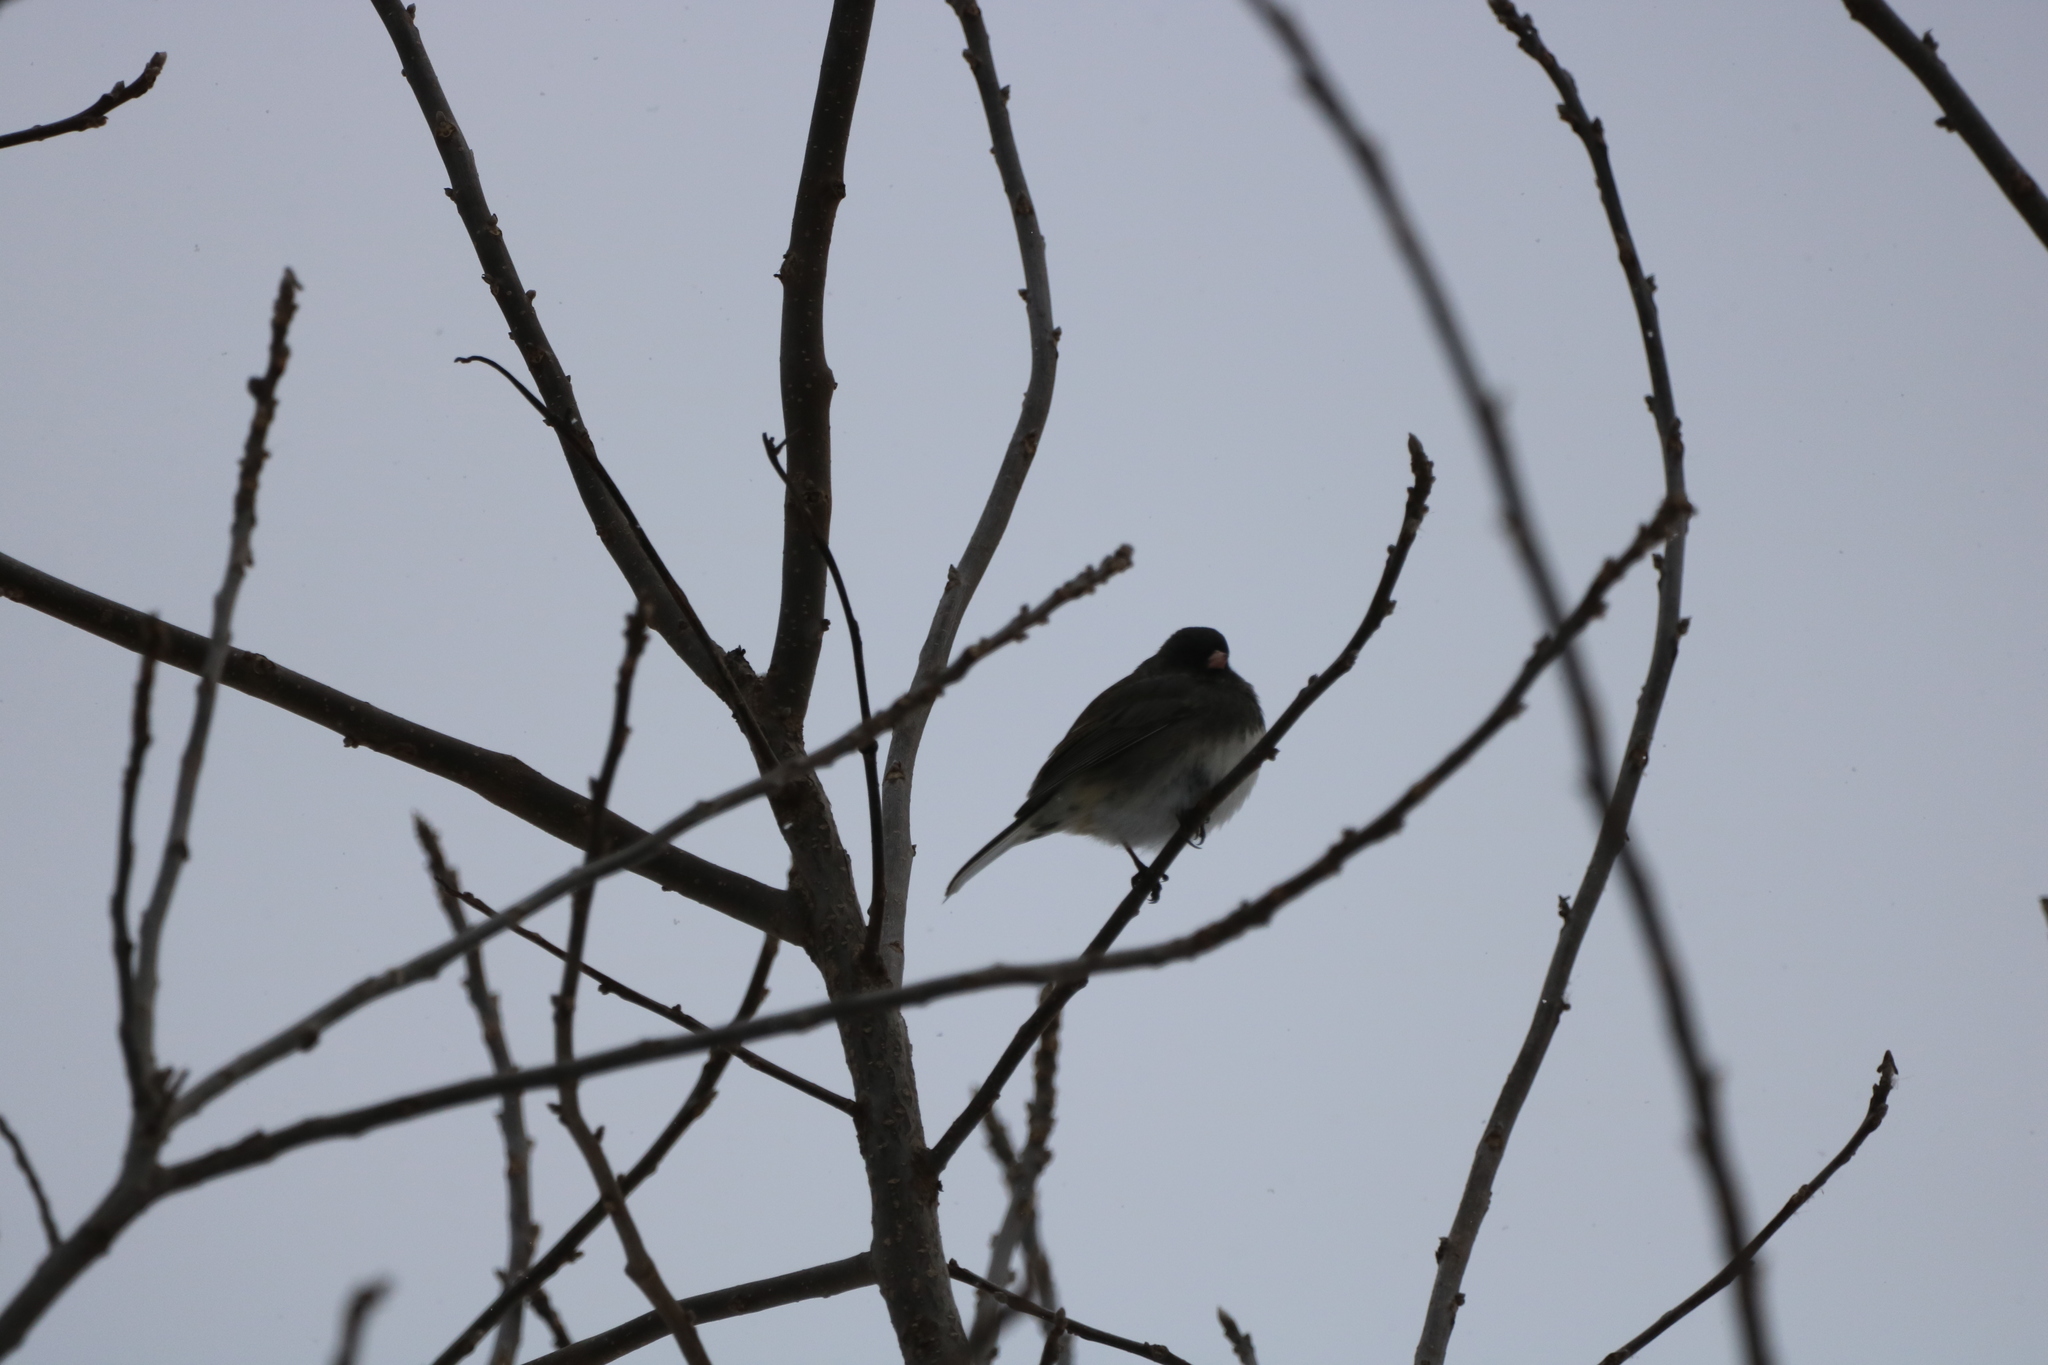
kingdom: Animalia
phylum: Chordata
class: Aves
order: Passeriformes
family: Passerellidae
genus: Junco
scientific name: Junco hyemalis
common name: Dark-eyed junco
